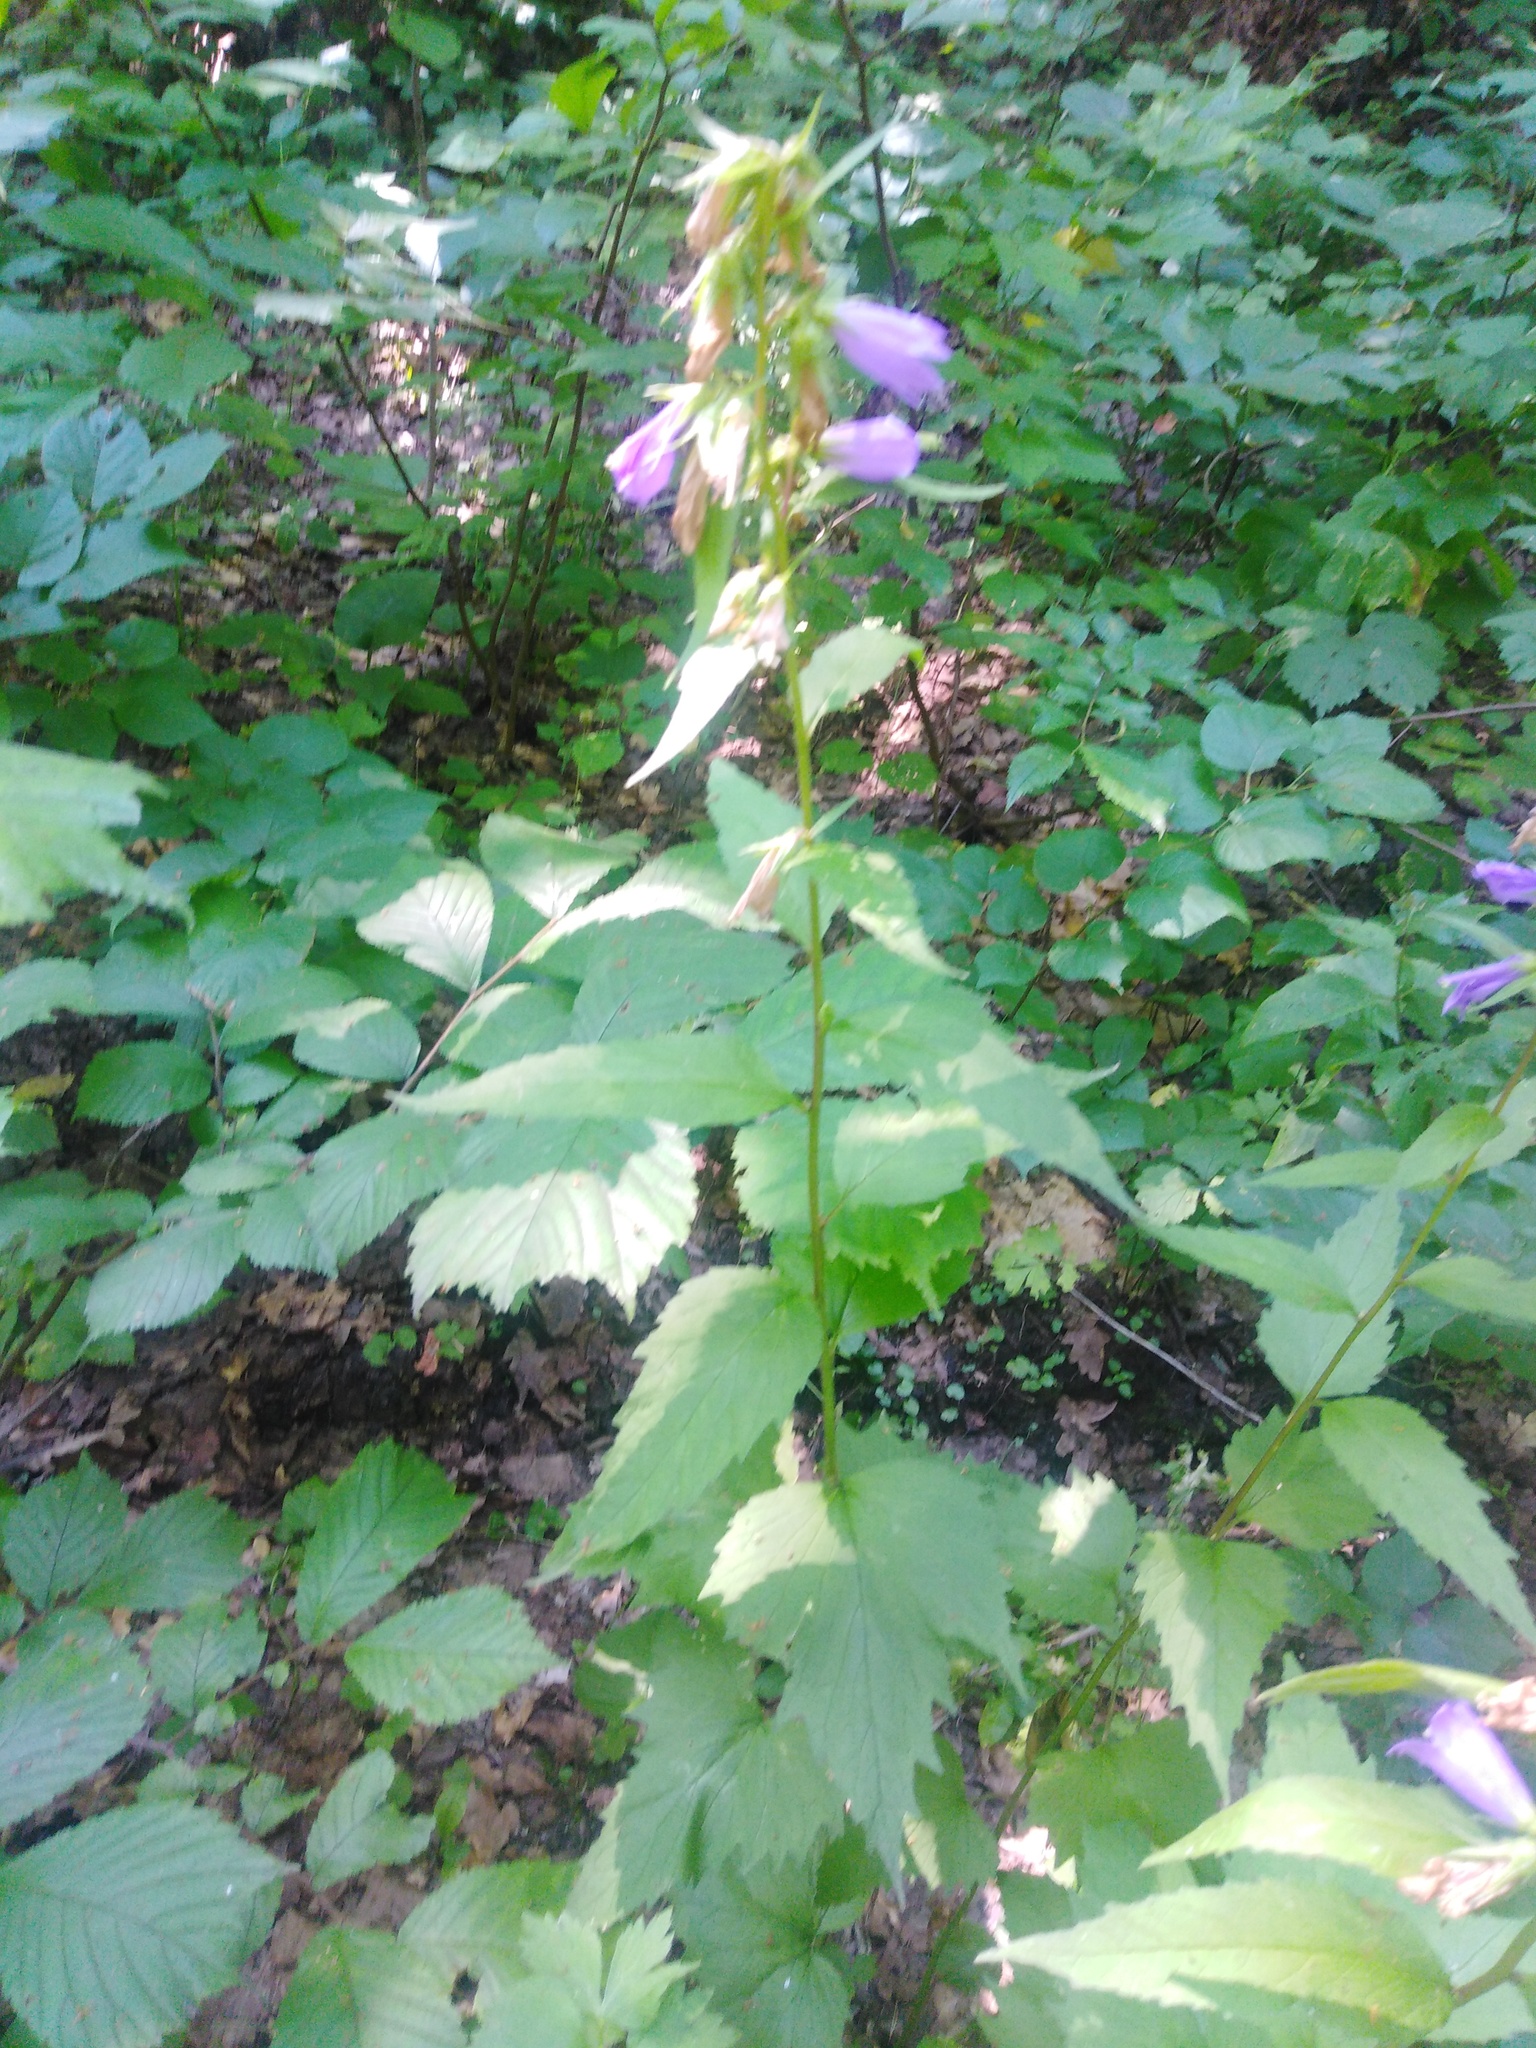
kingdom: Plantae
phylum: Tracheophyta
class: Magnoliopsida
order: Asterales
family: Campanulaceae
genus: Campanula
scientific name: Campanula trachelium
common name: Nettle-leaved bellflower
